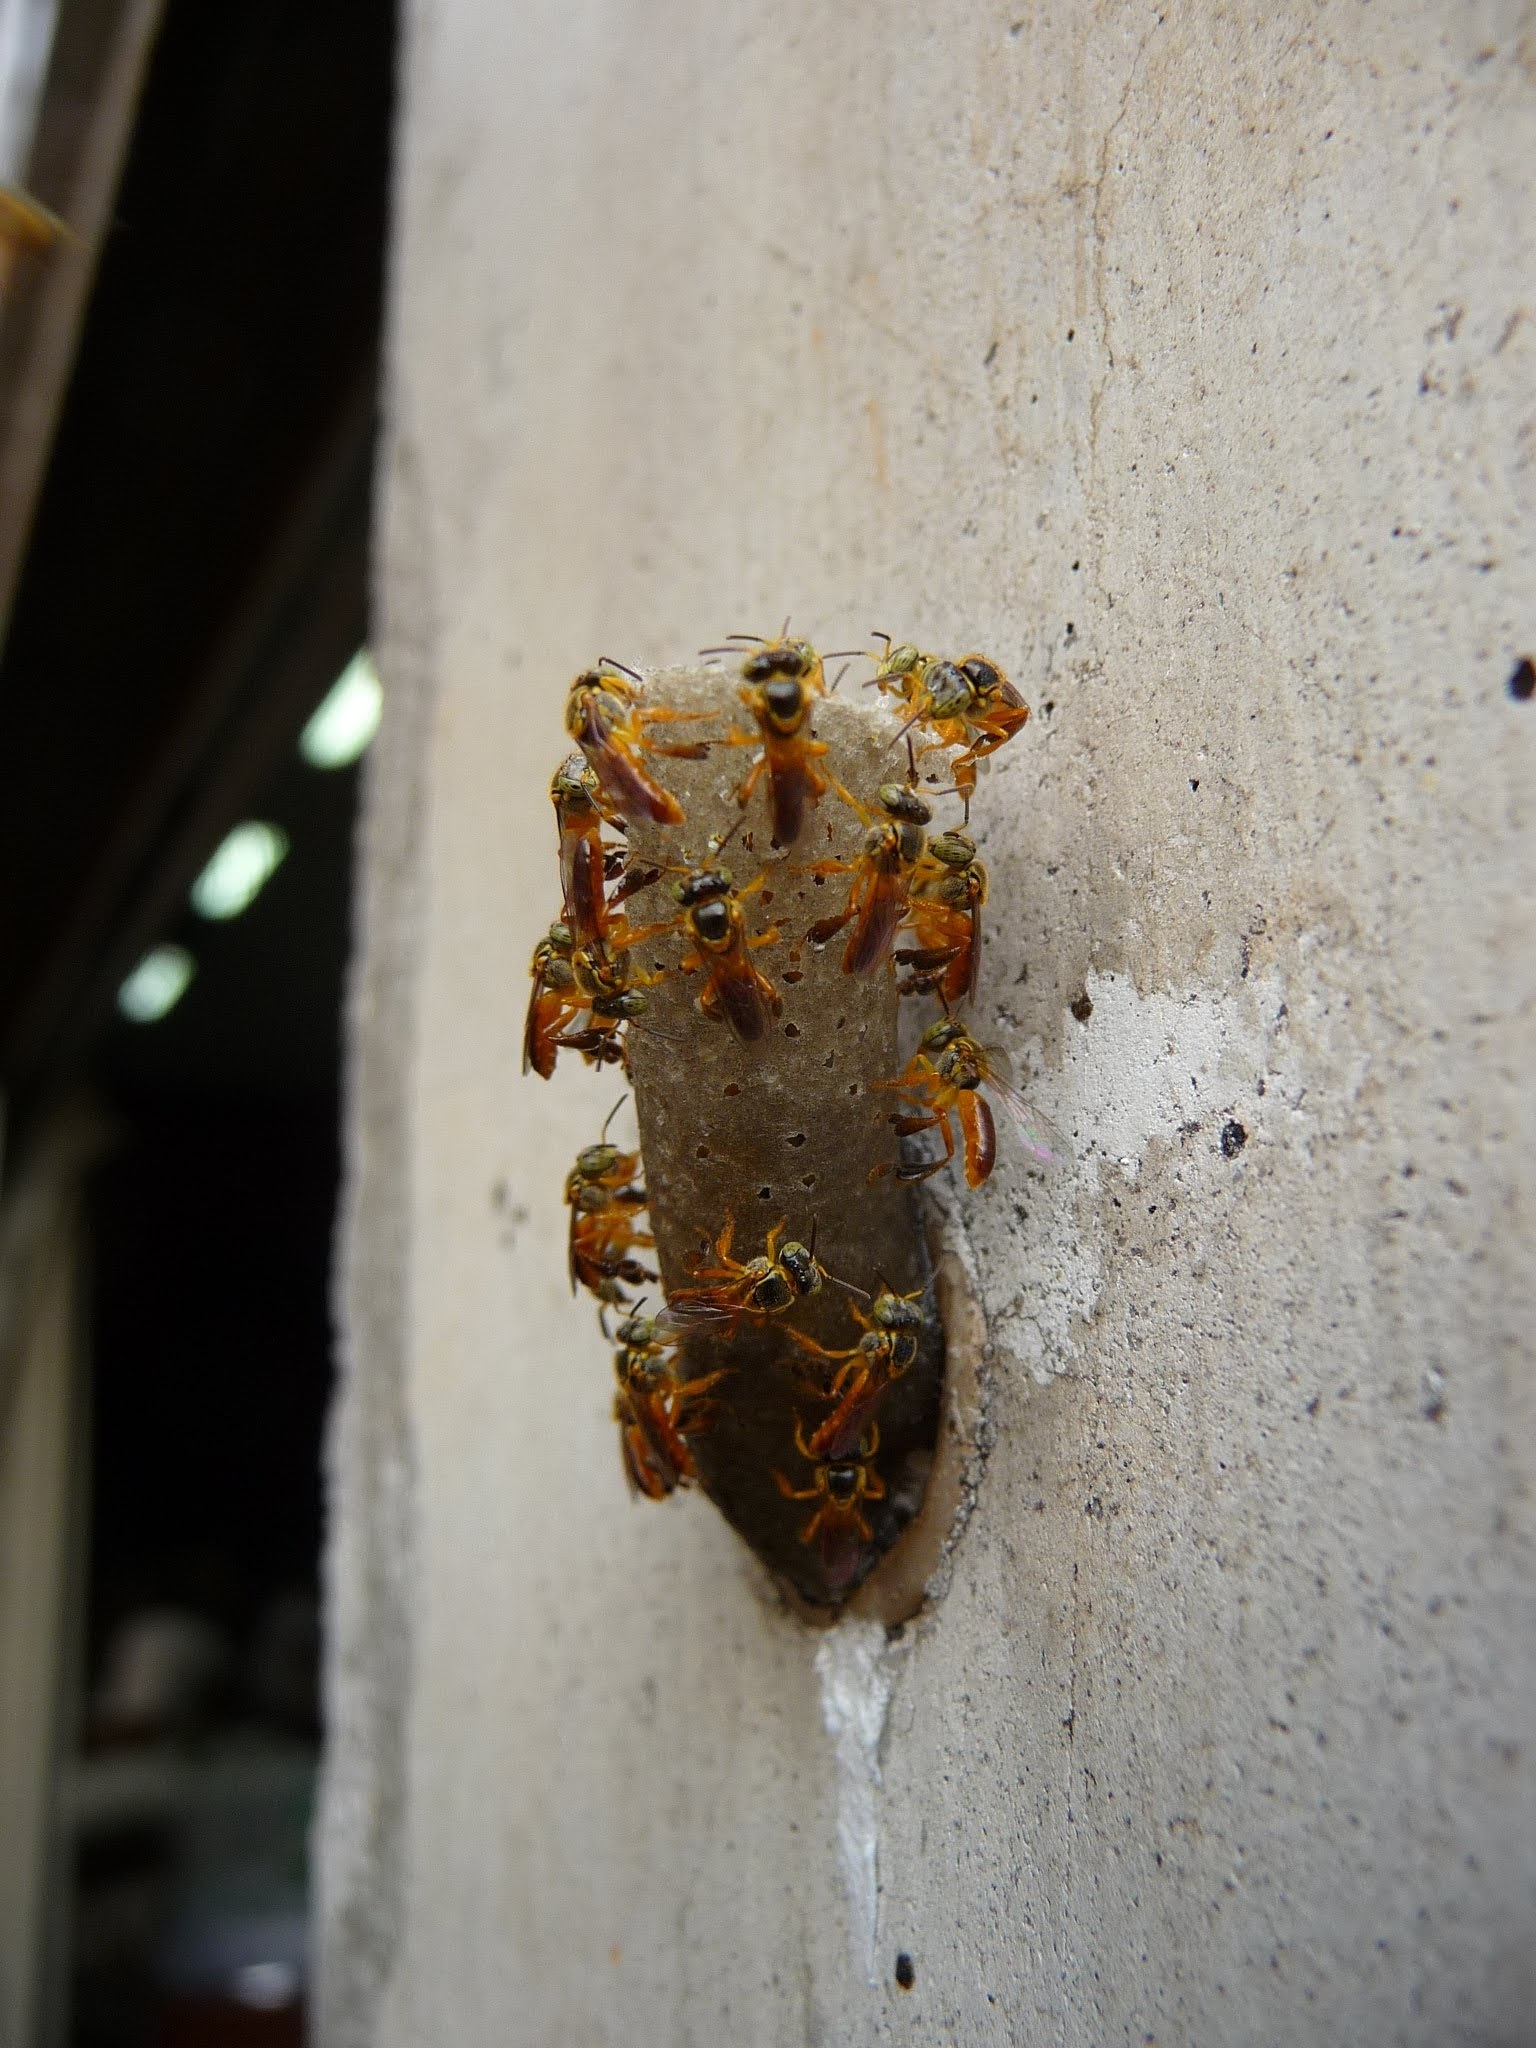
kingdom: Animalia
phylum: Arthropoda
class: Insecta
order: Hymenoptera
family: Apidae
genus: Tetragonisca
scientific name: Tetragonisca angustula
